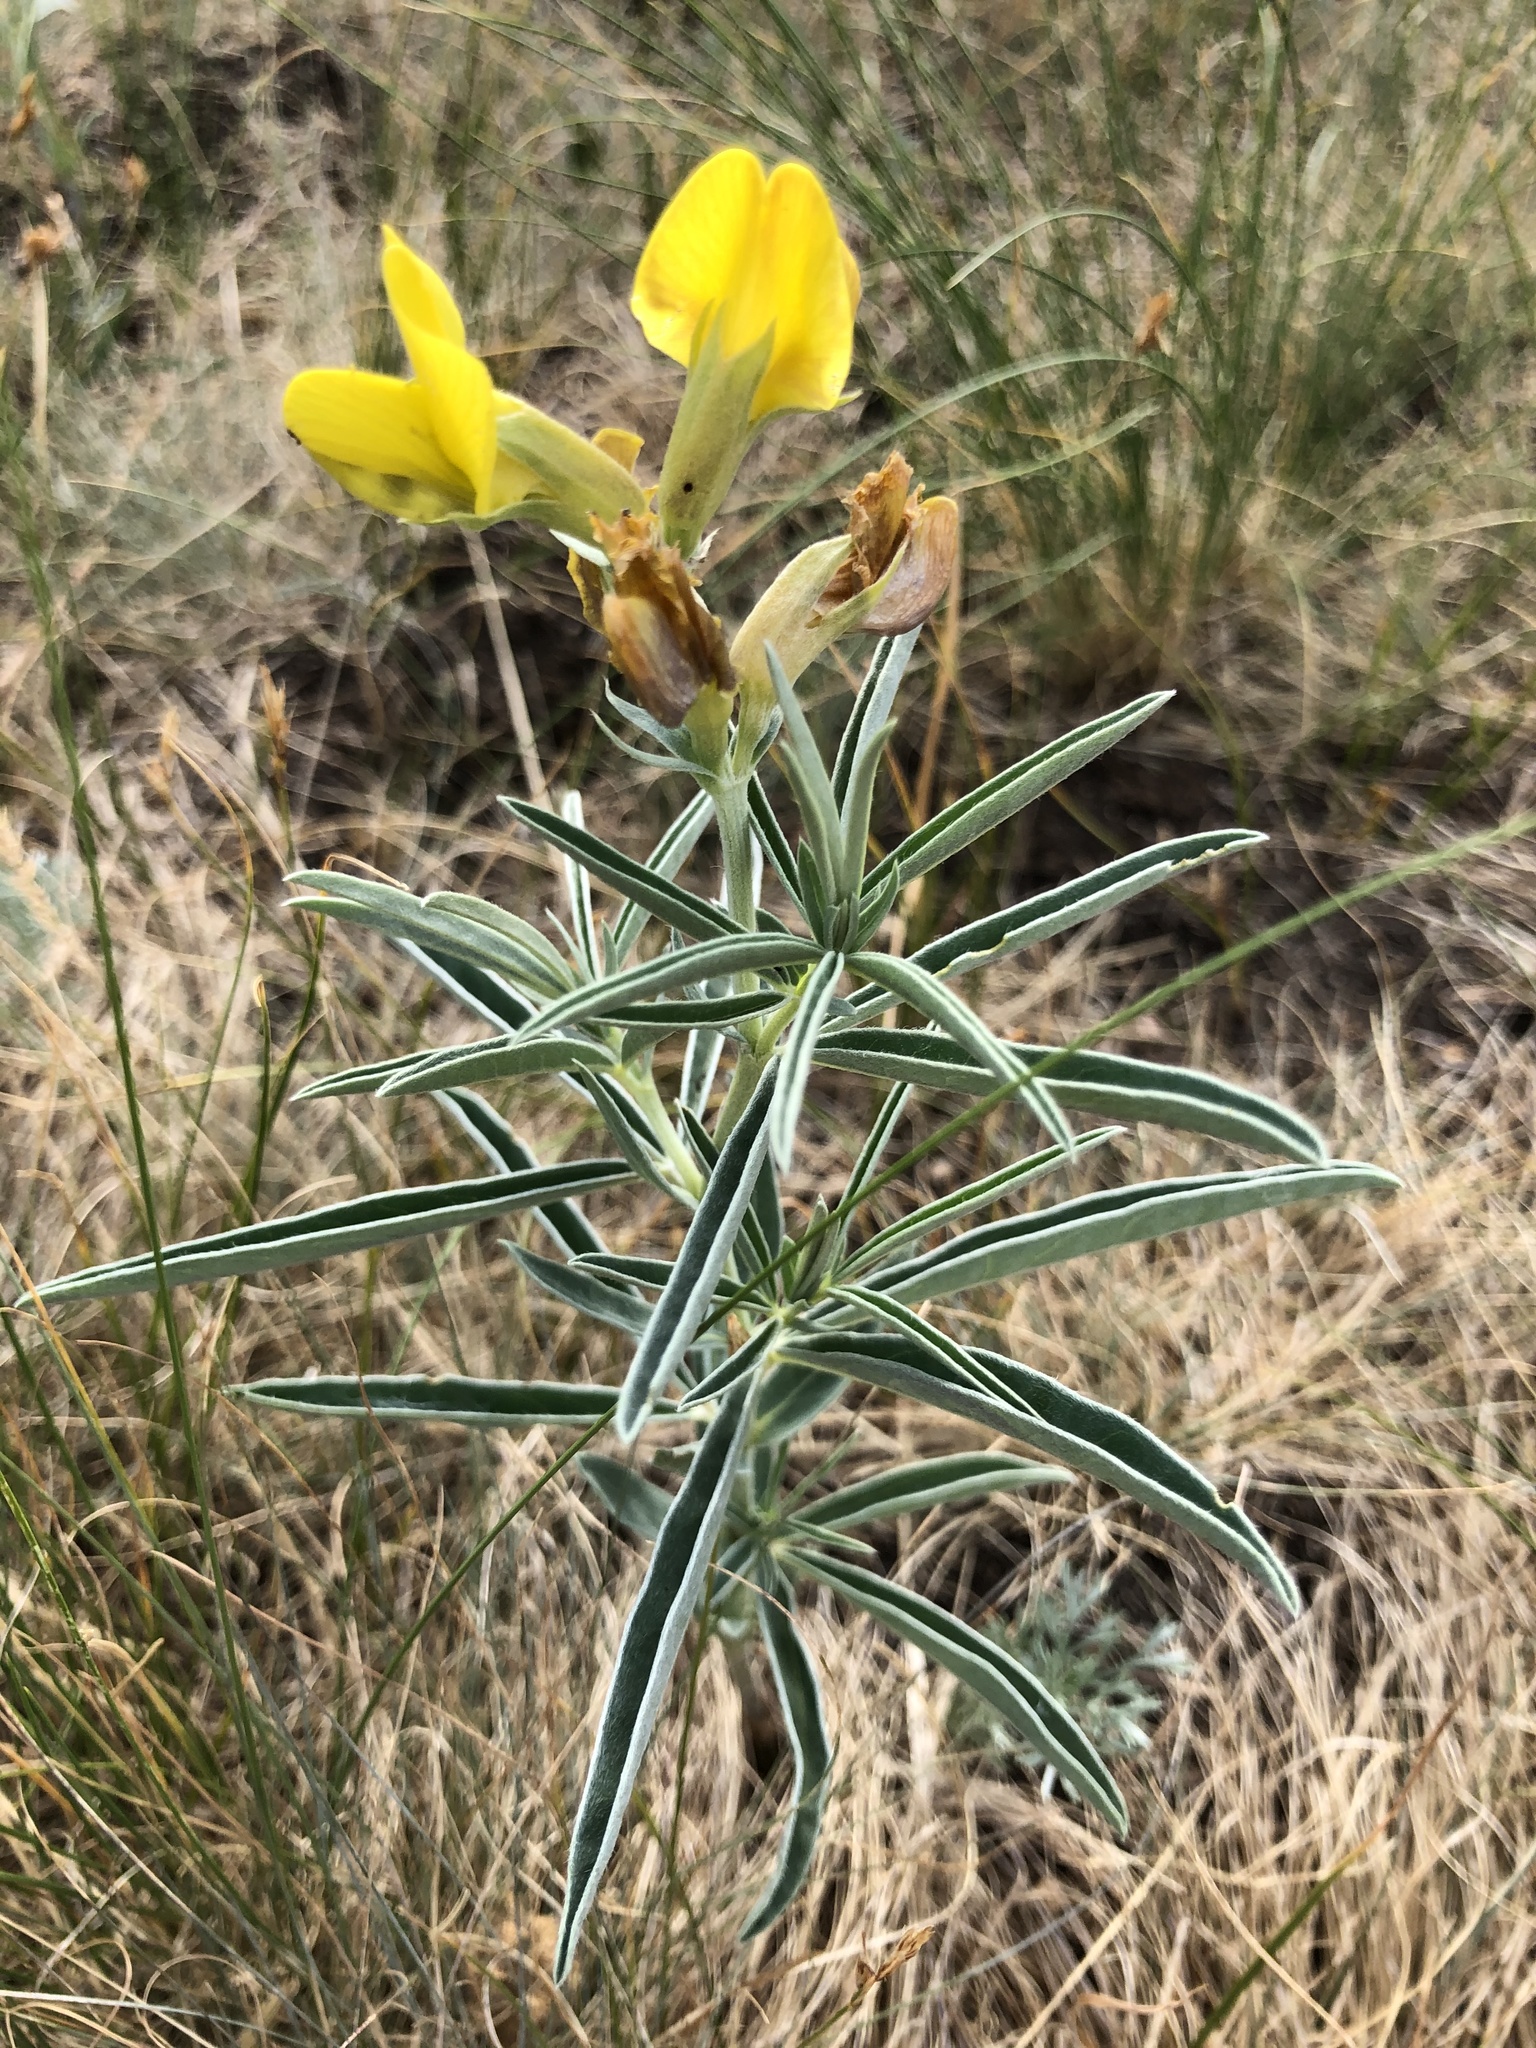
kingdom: Plantae
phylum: Tracheophyta
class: Magnoliopsida
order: Fabales
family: Fabaceae
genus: Thermopsis
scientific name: Thermopsis mongolica
